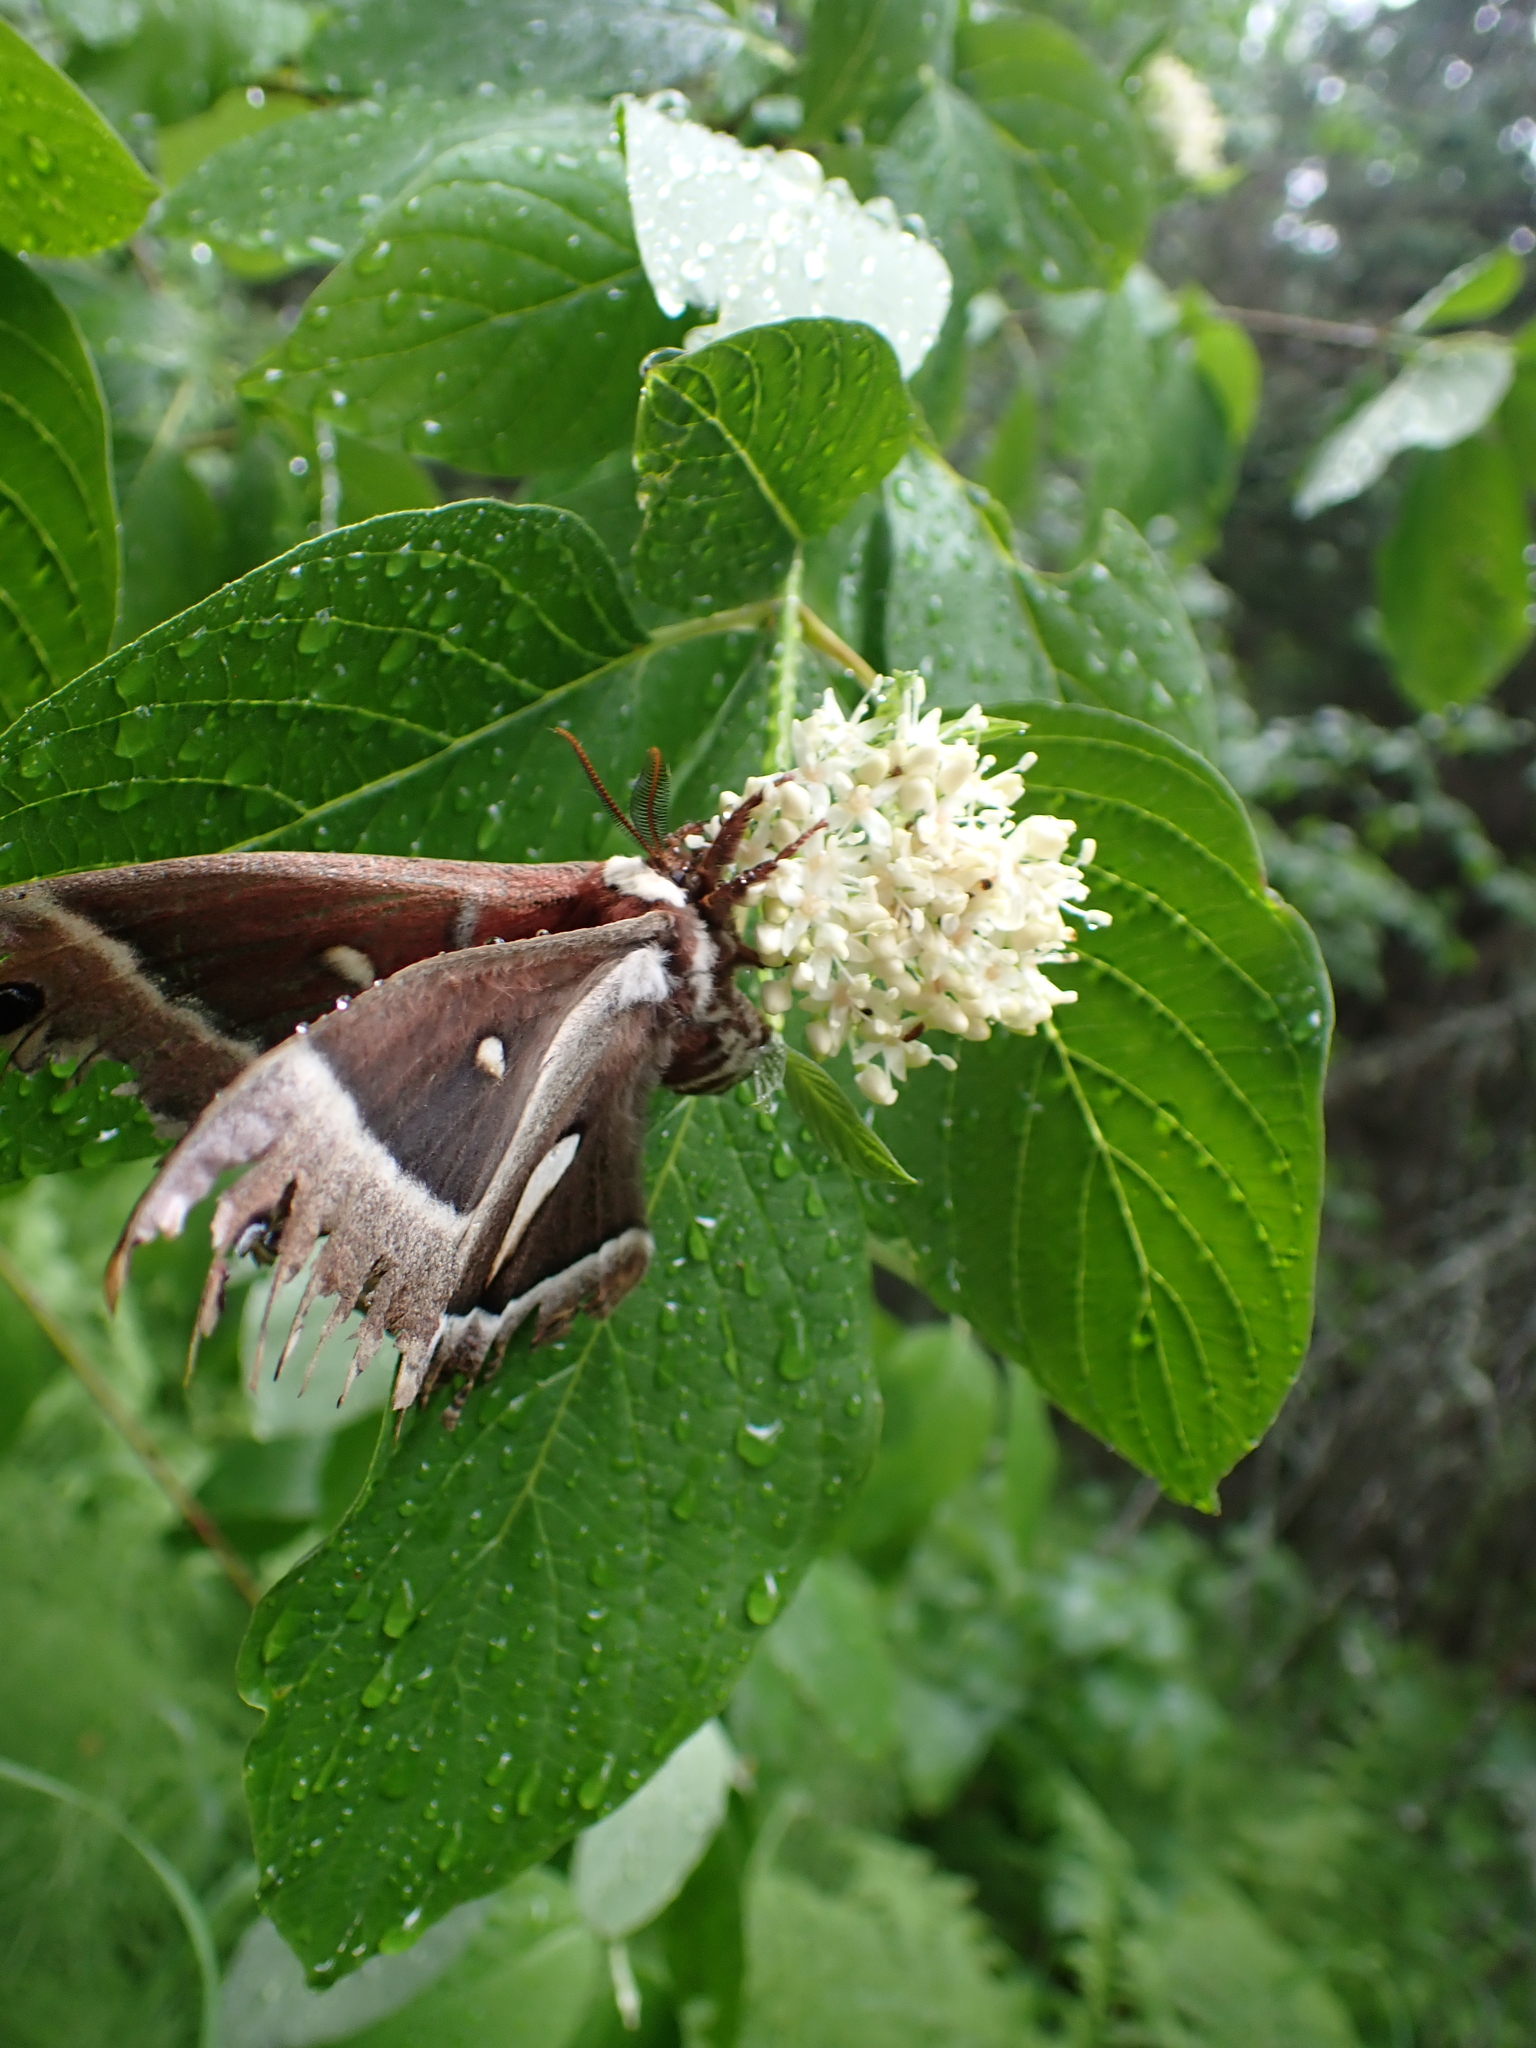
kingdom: Animalia
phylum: Arthropoda
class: Insecta
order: Lepidoptera
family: Saturniidae
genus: Hyalophora
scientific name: Hyalophora euryalus
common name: Ceanothus silkmoth
